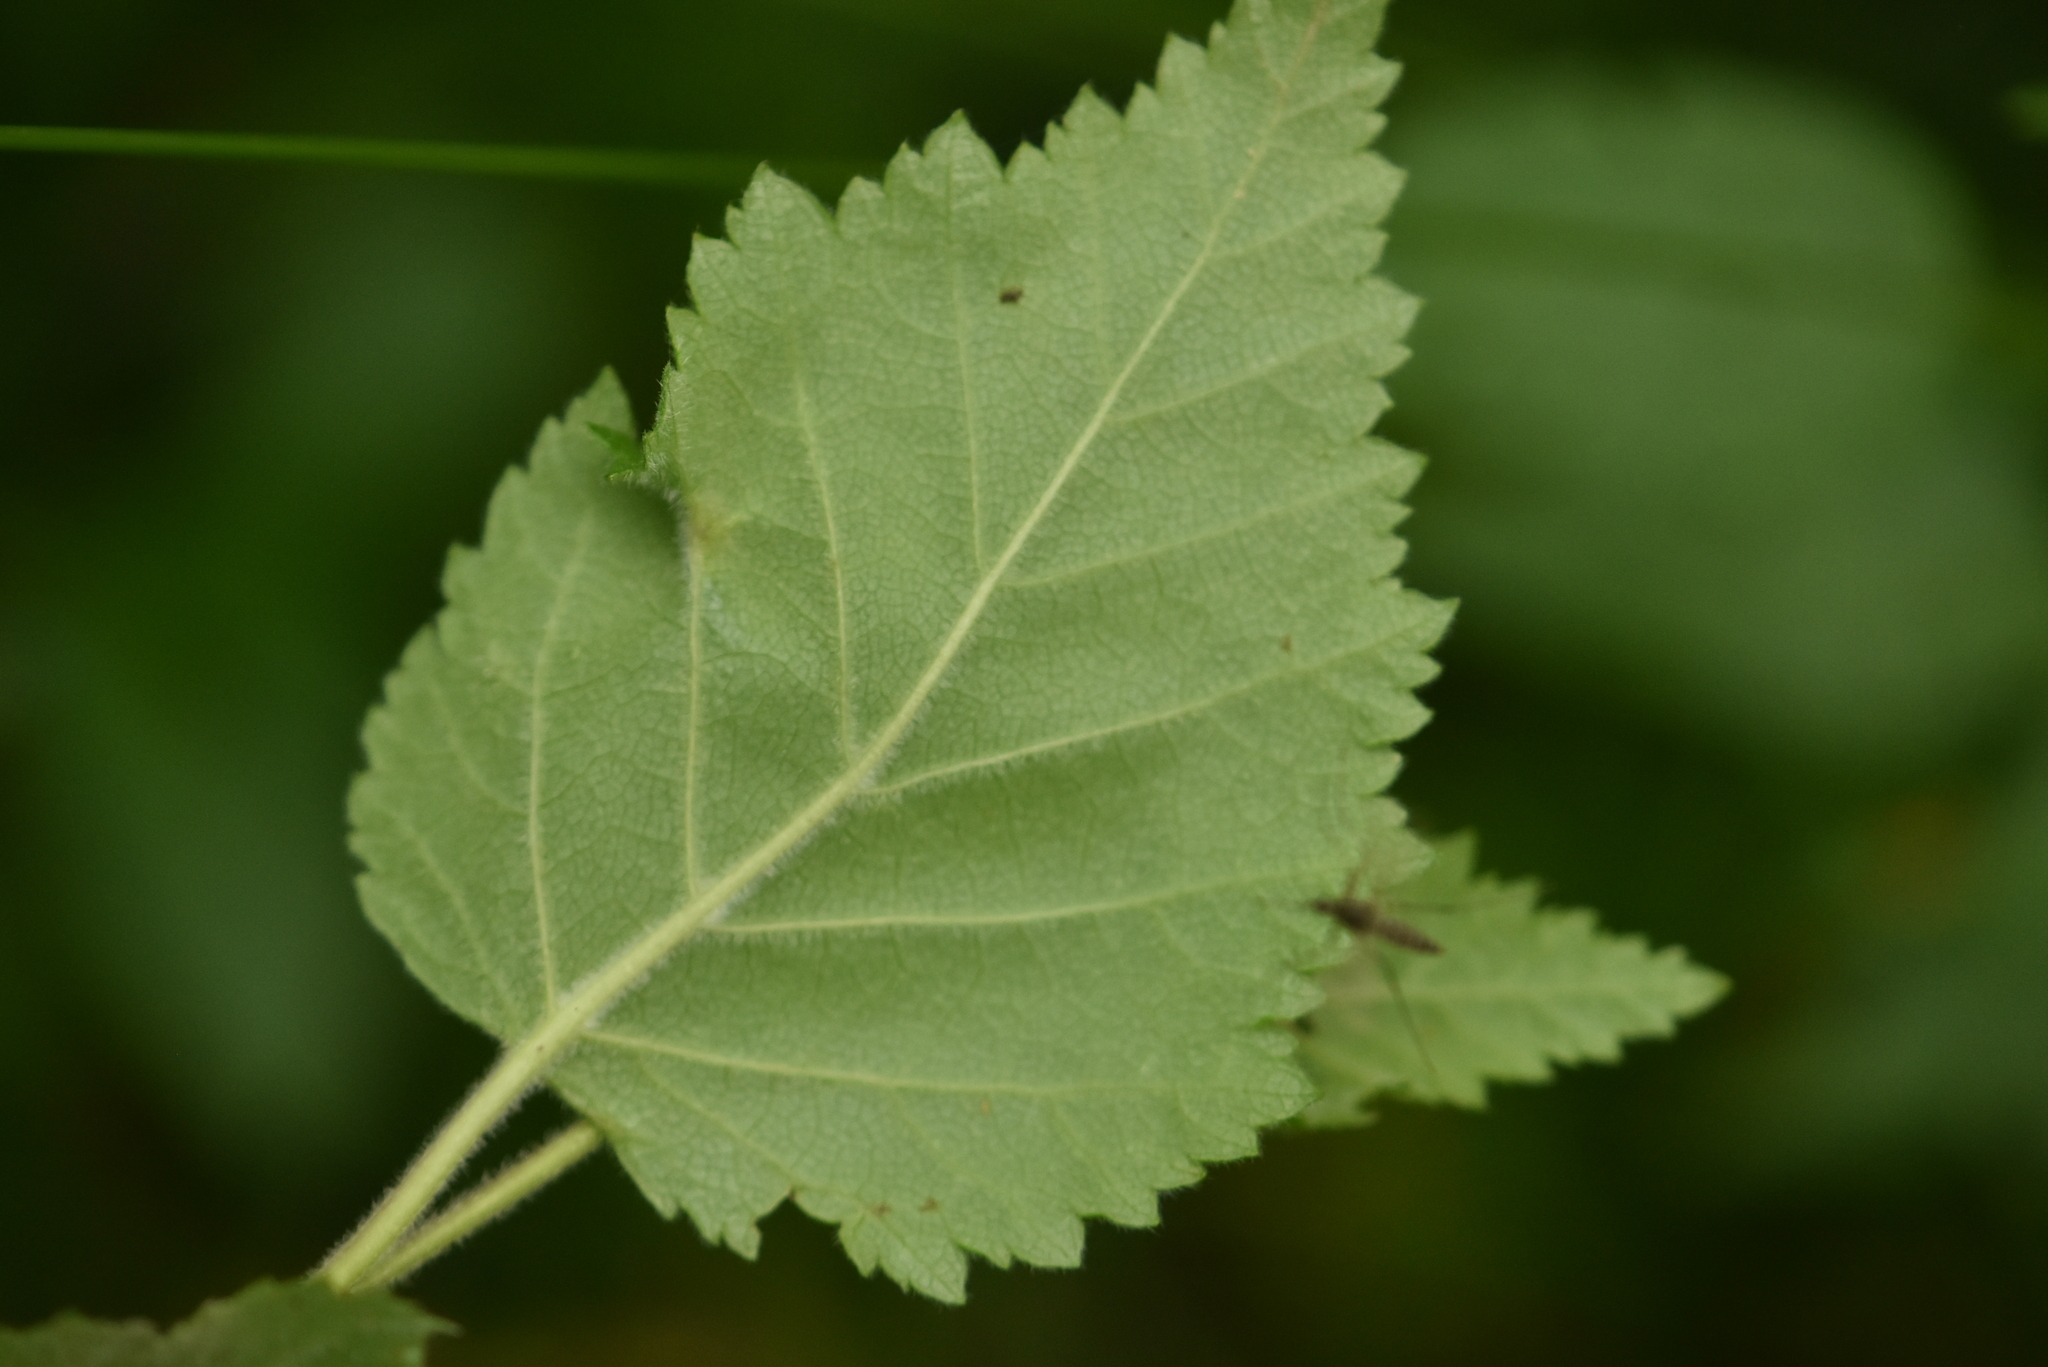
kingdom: Plantae
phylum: Tracheophyta
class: Magnoliopsida
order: Fagales
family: Betulaceae
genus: Betula
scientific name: Betula pubescens
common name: Downy birch
